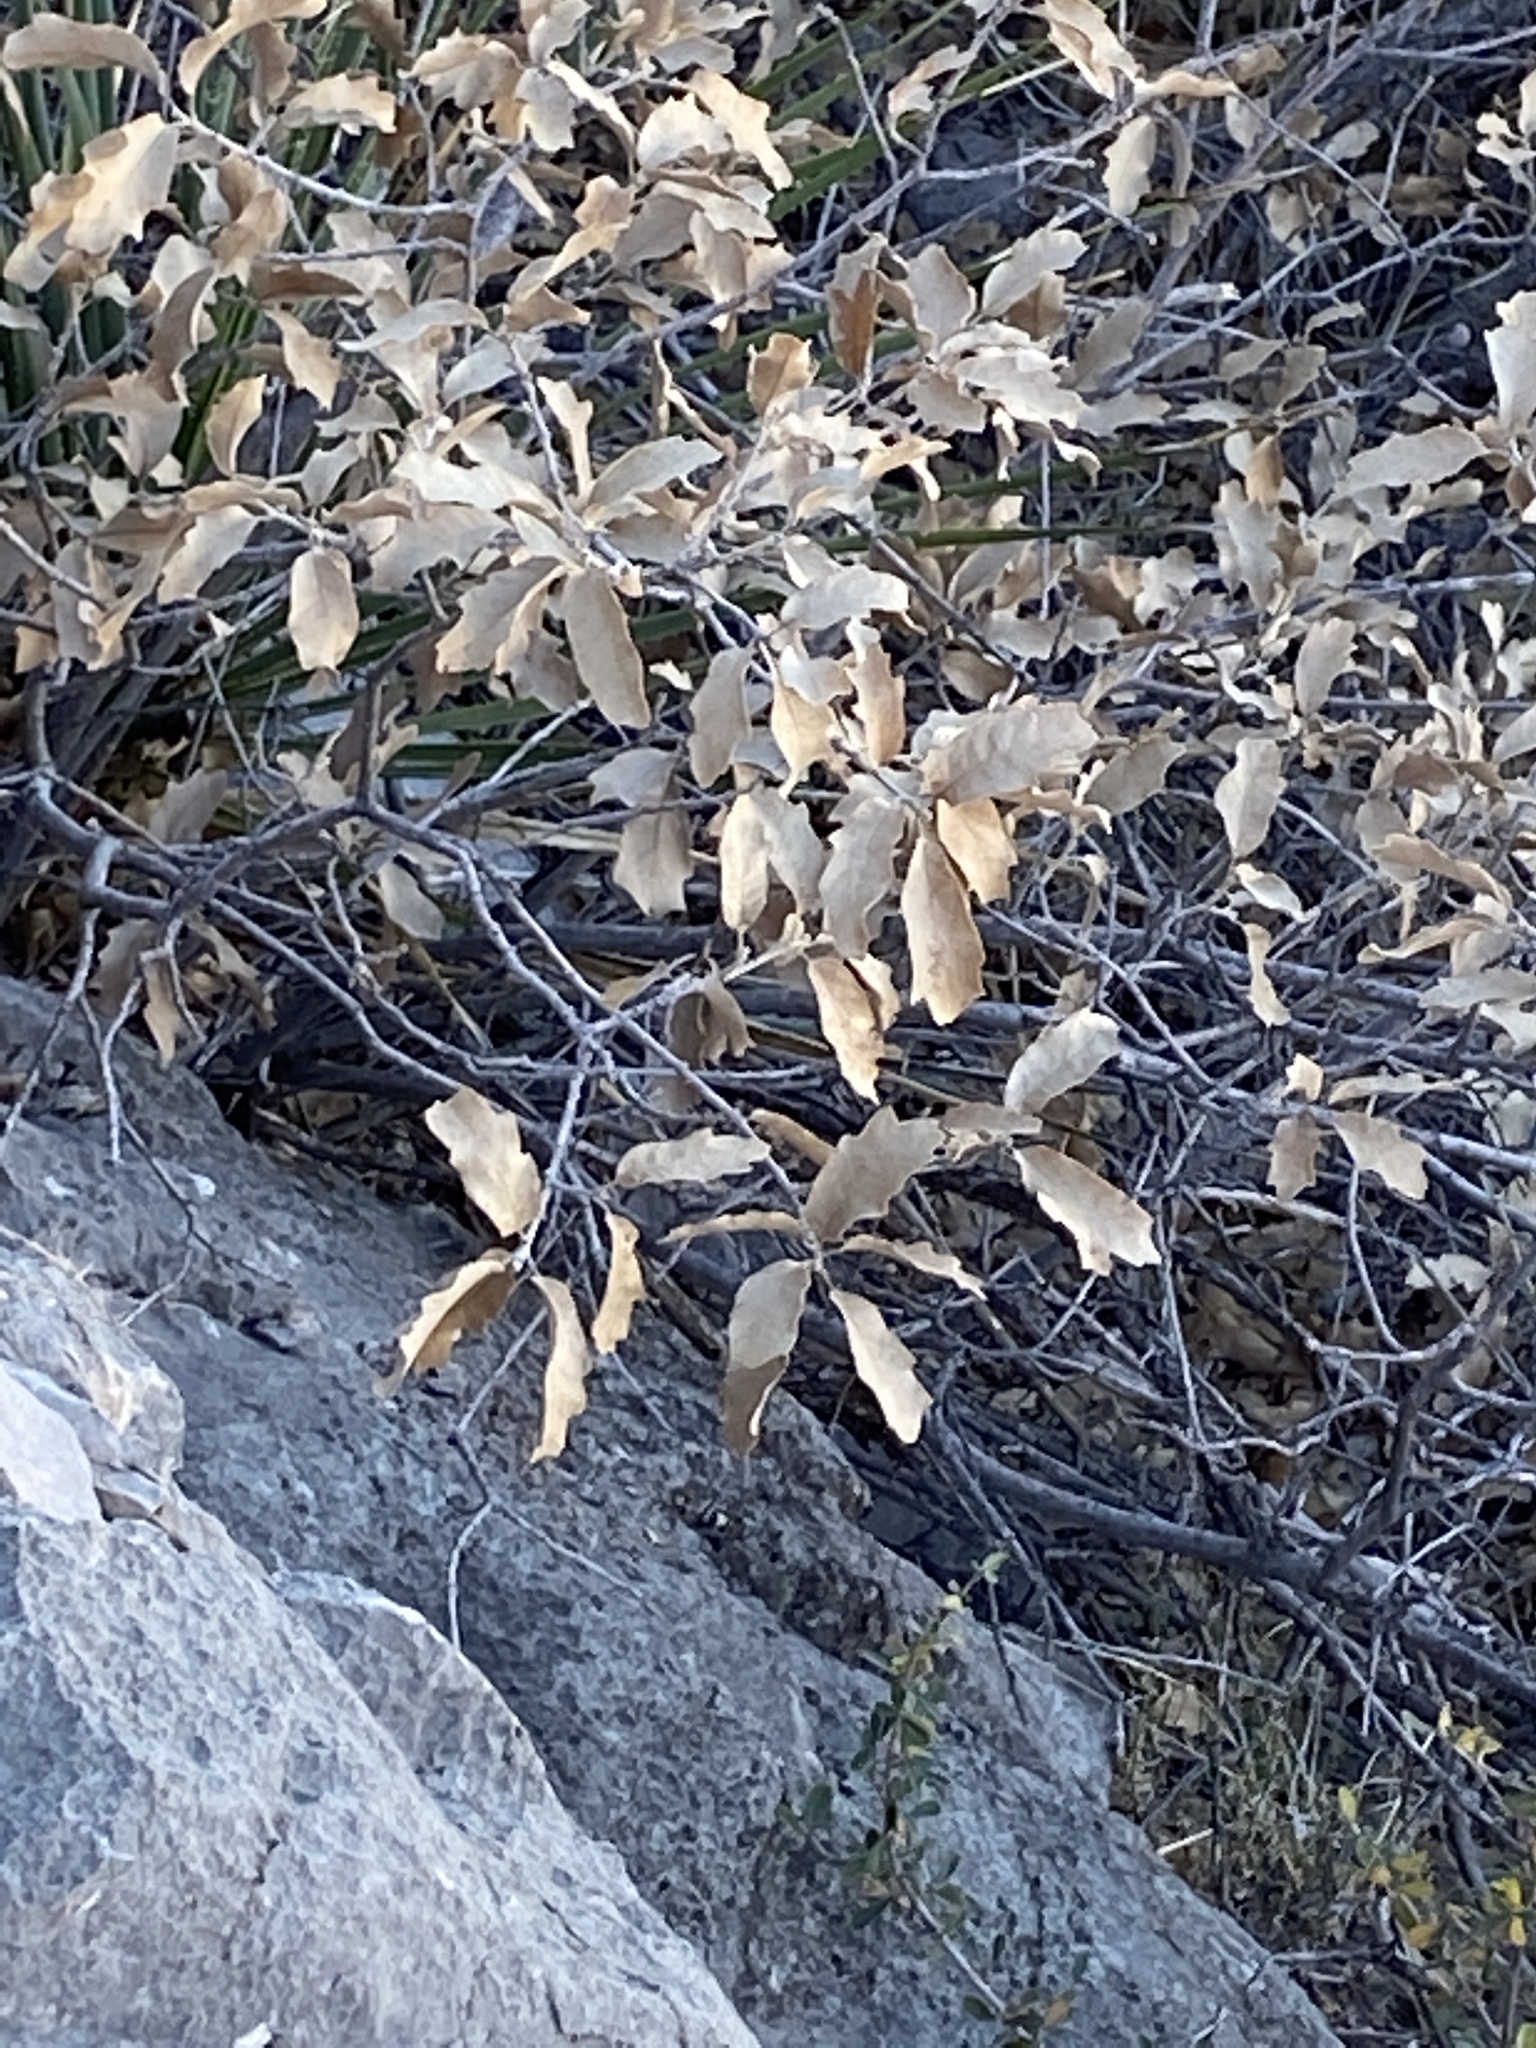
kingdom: Plantae
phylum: Tracheophyta
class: Magnoliopsida
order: Fagales
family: Fagaceae
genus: Quercus
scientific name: Quercus undulata
